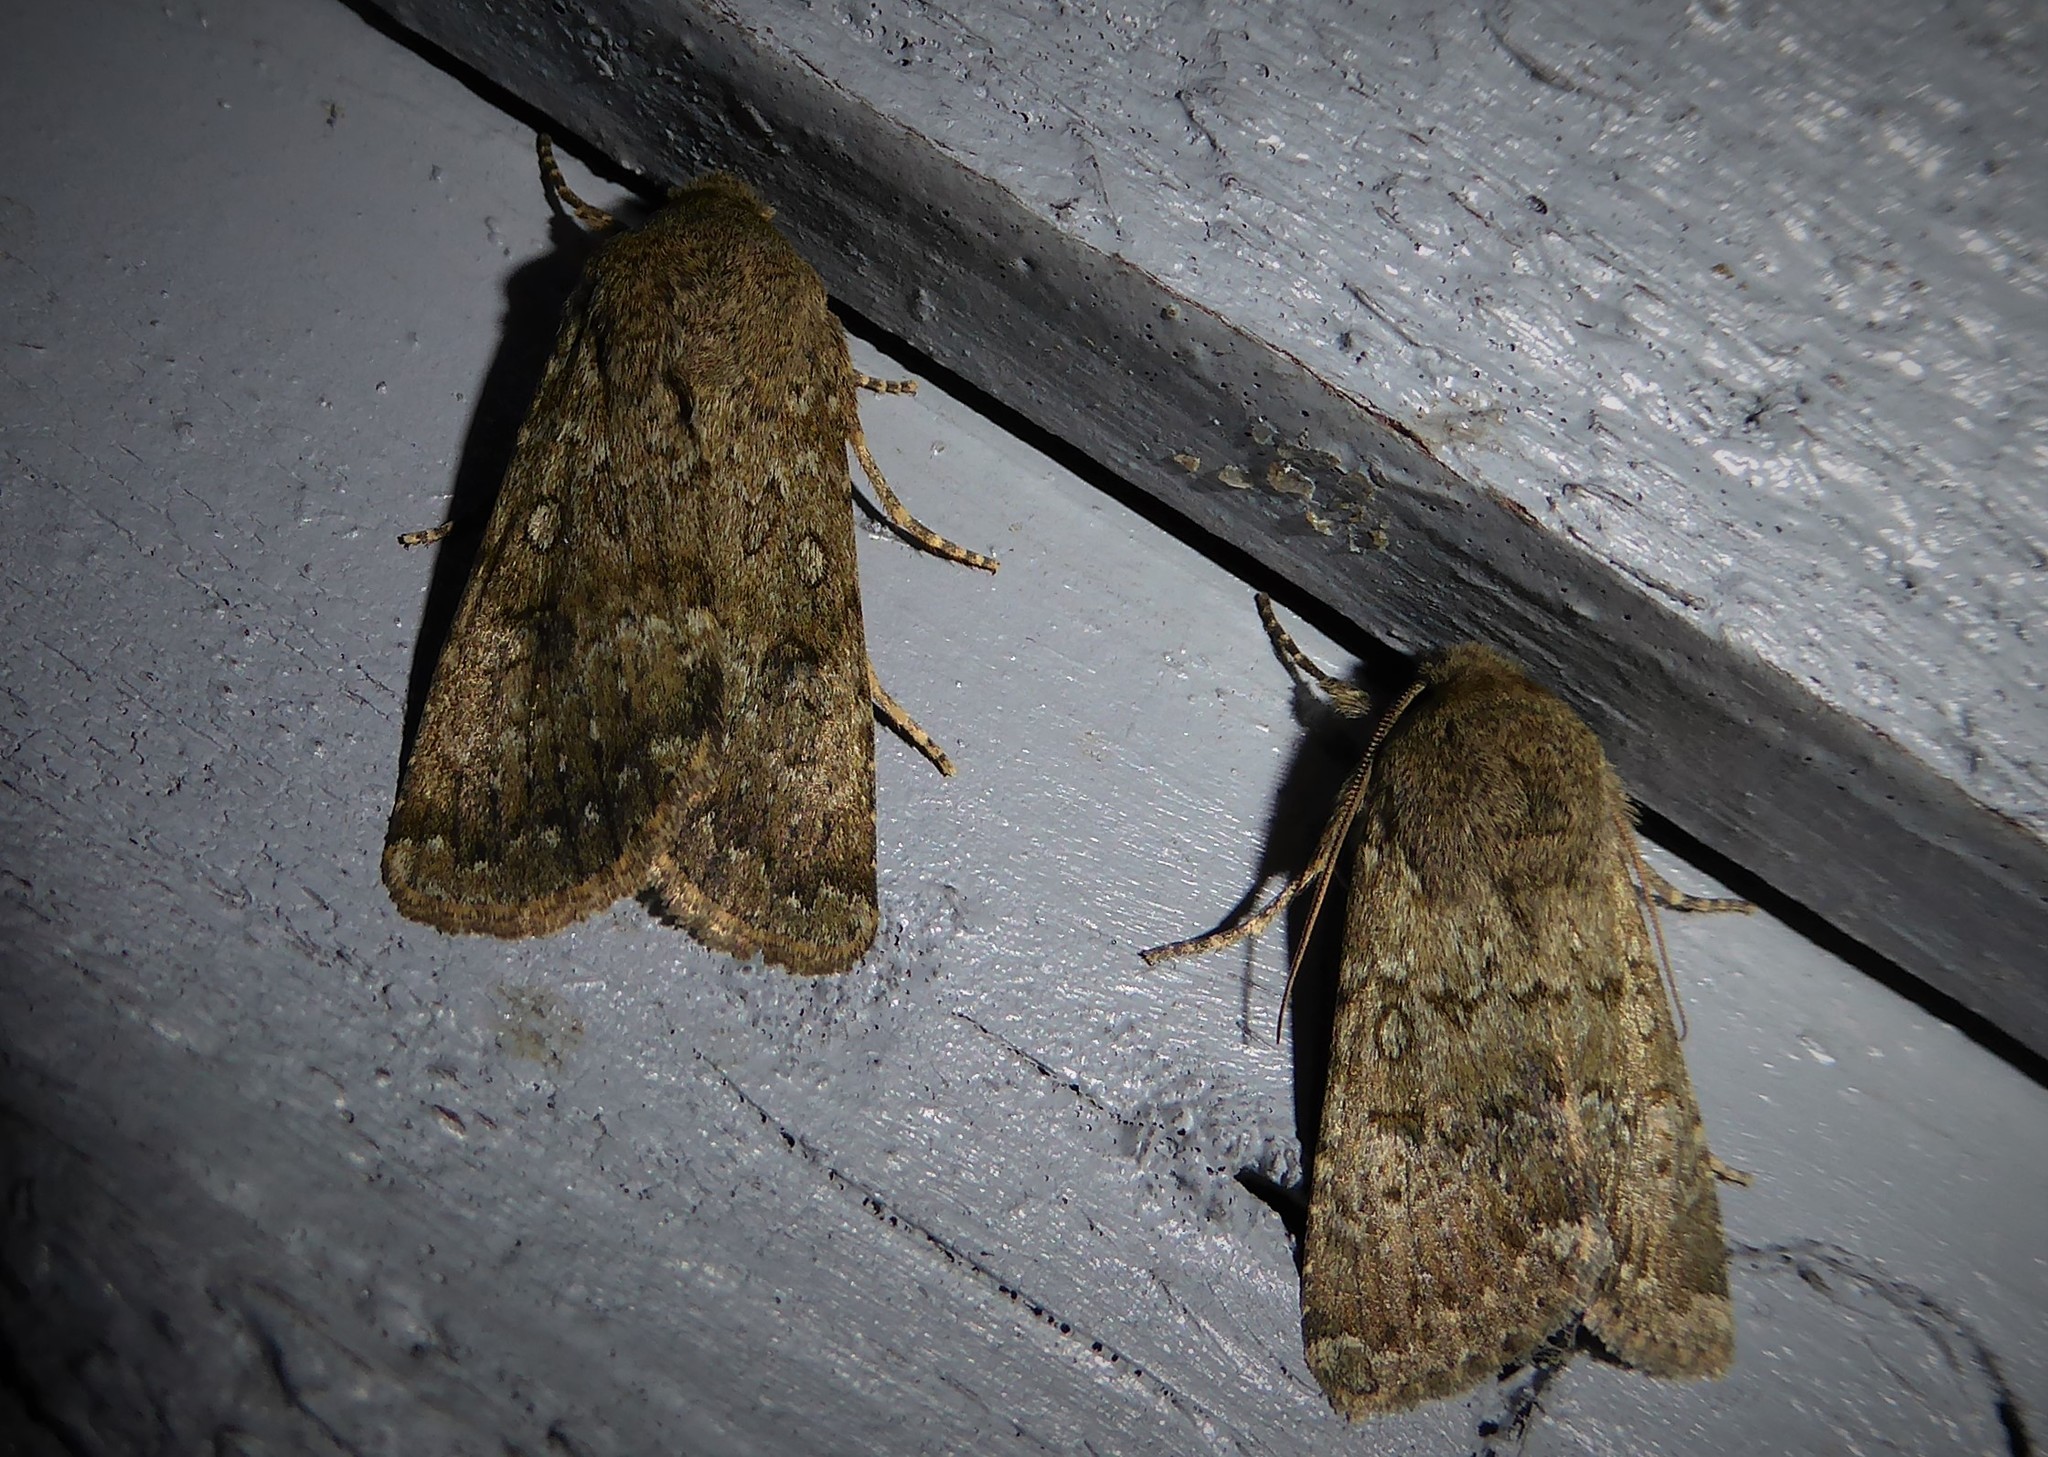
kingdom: Animalia
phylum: Arthropoda
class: Insecta
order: Lepidoptera
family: Noctuidae
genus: Ichneutica
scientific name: Ichneutica moderata
